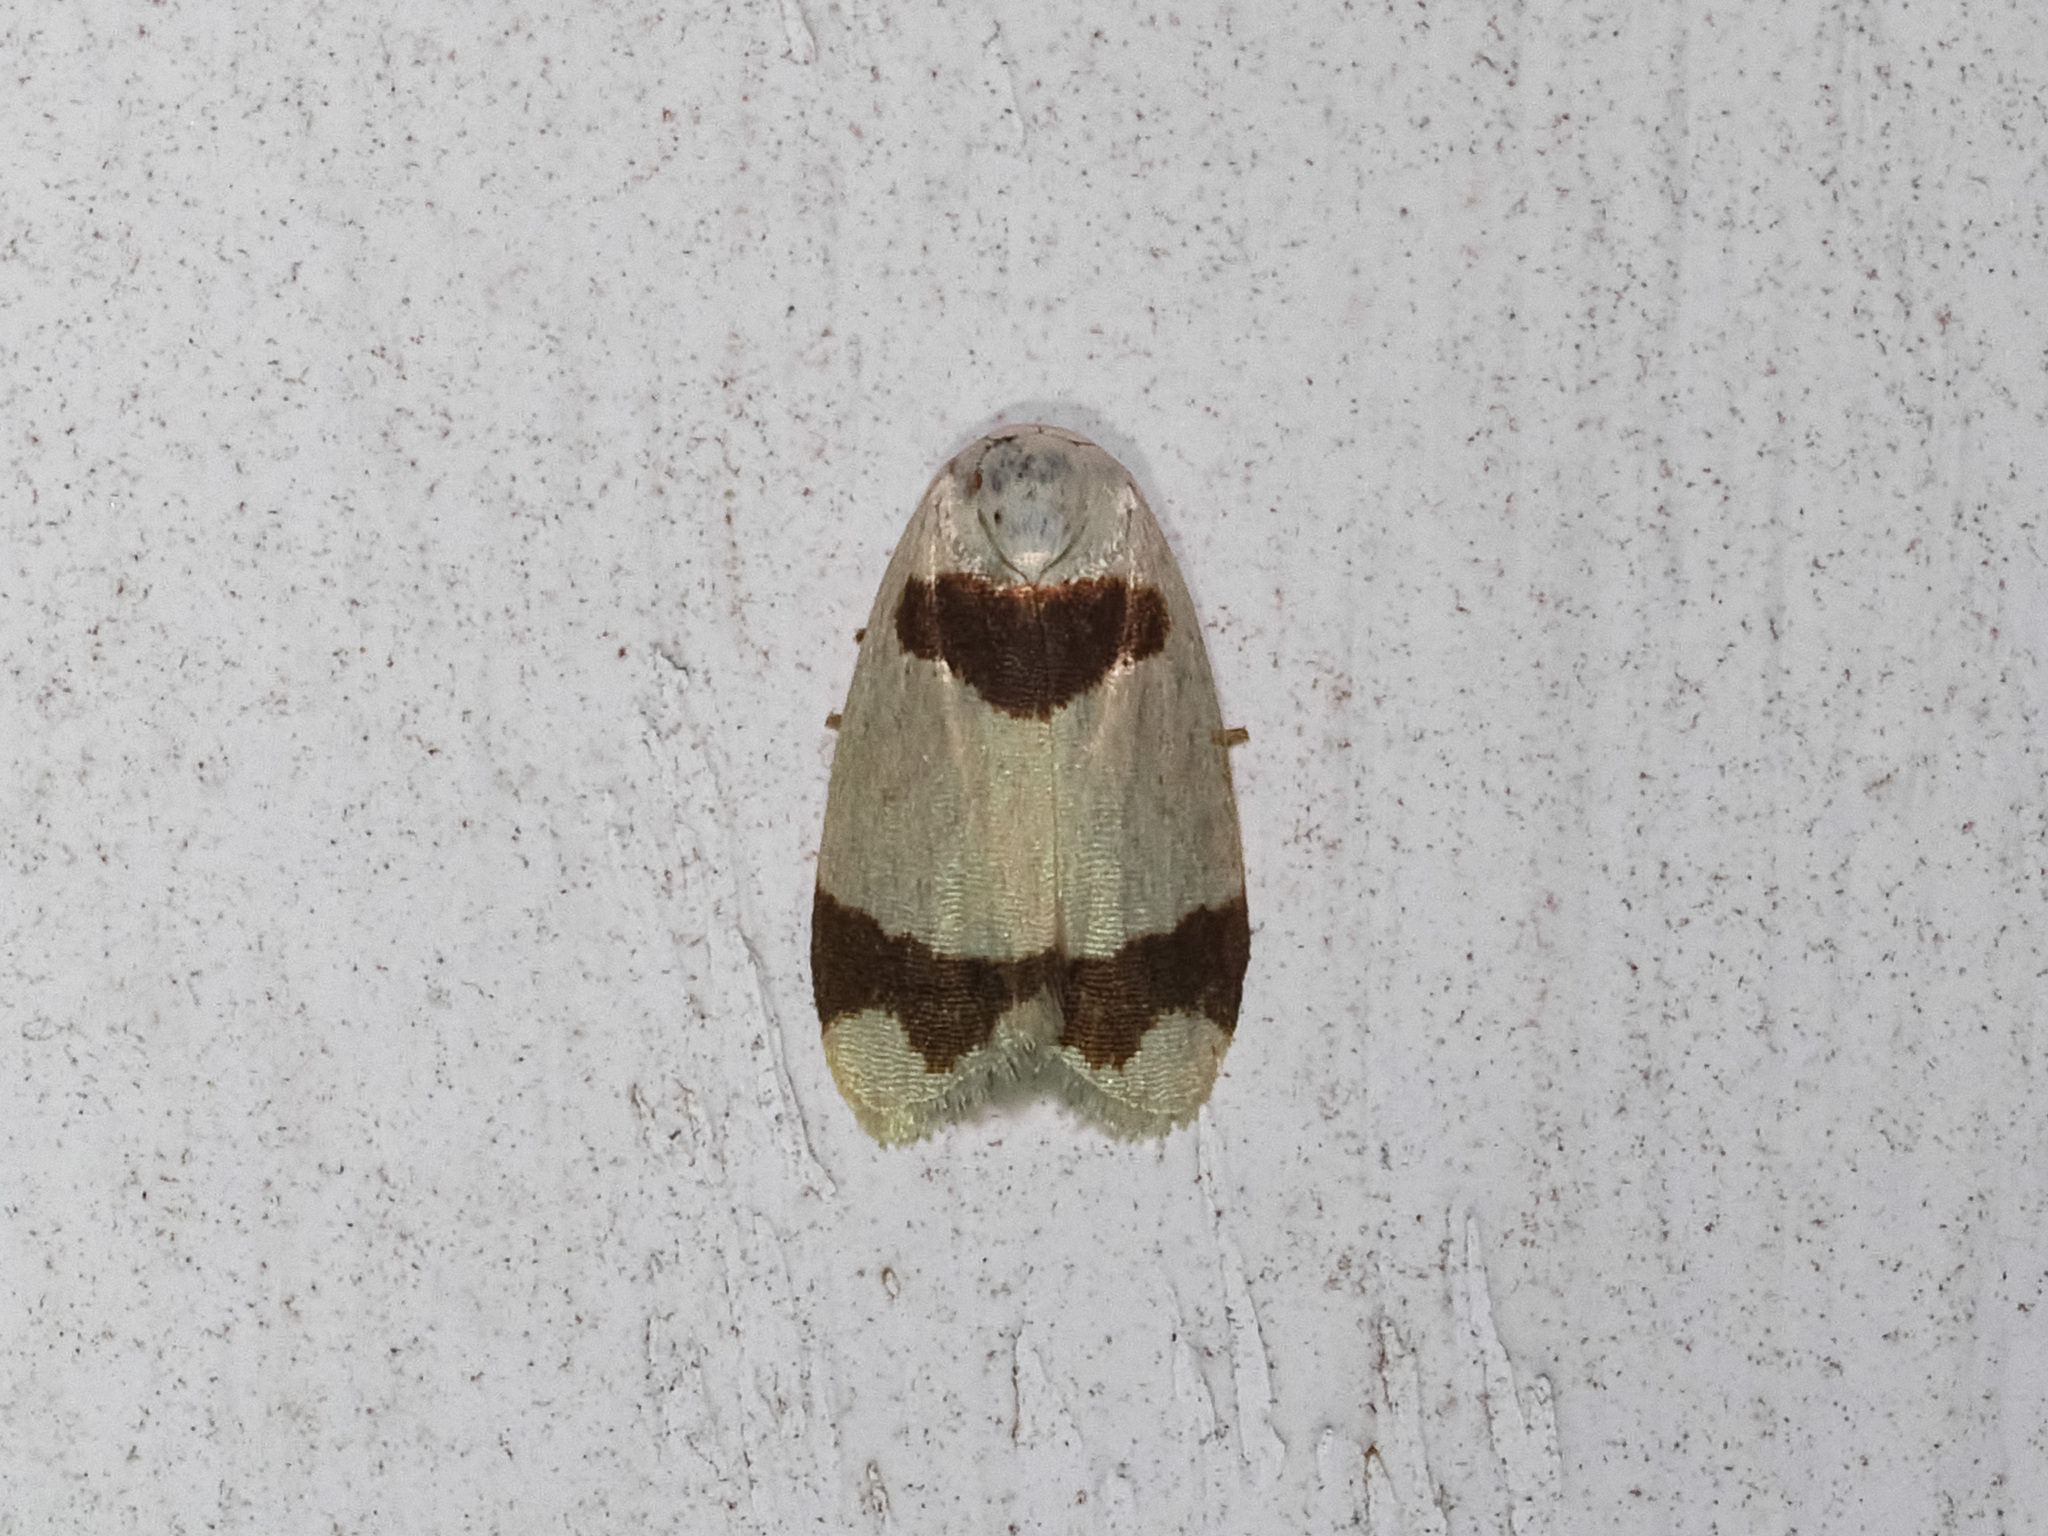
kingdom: Animalia
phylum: Arthropoda
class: Insecta
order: Lepidoptera
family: Erebidae
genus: Garudinia
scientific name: Garudinia latana
